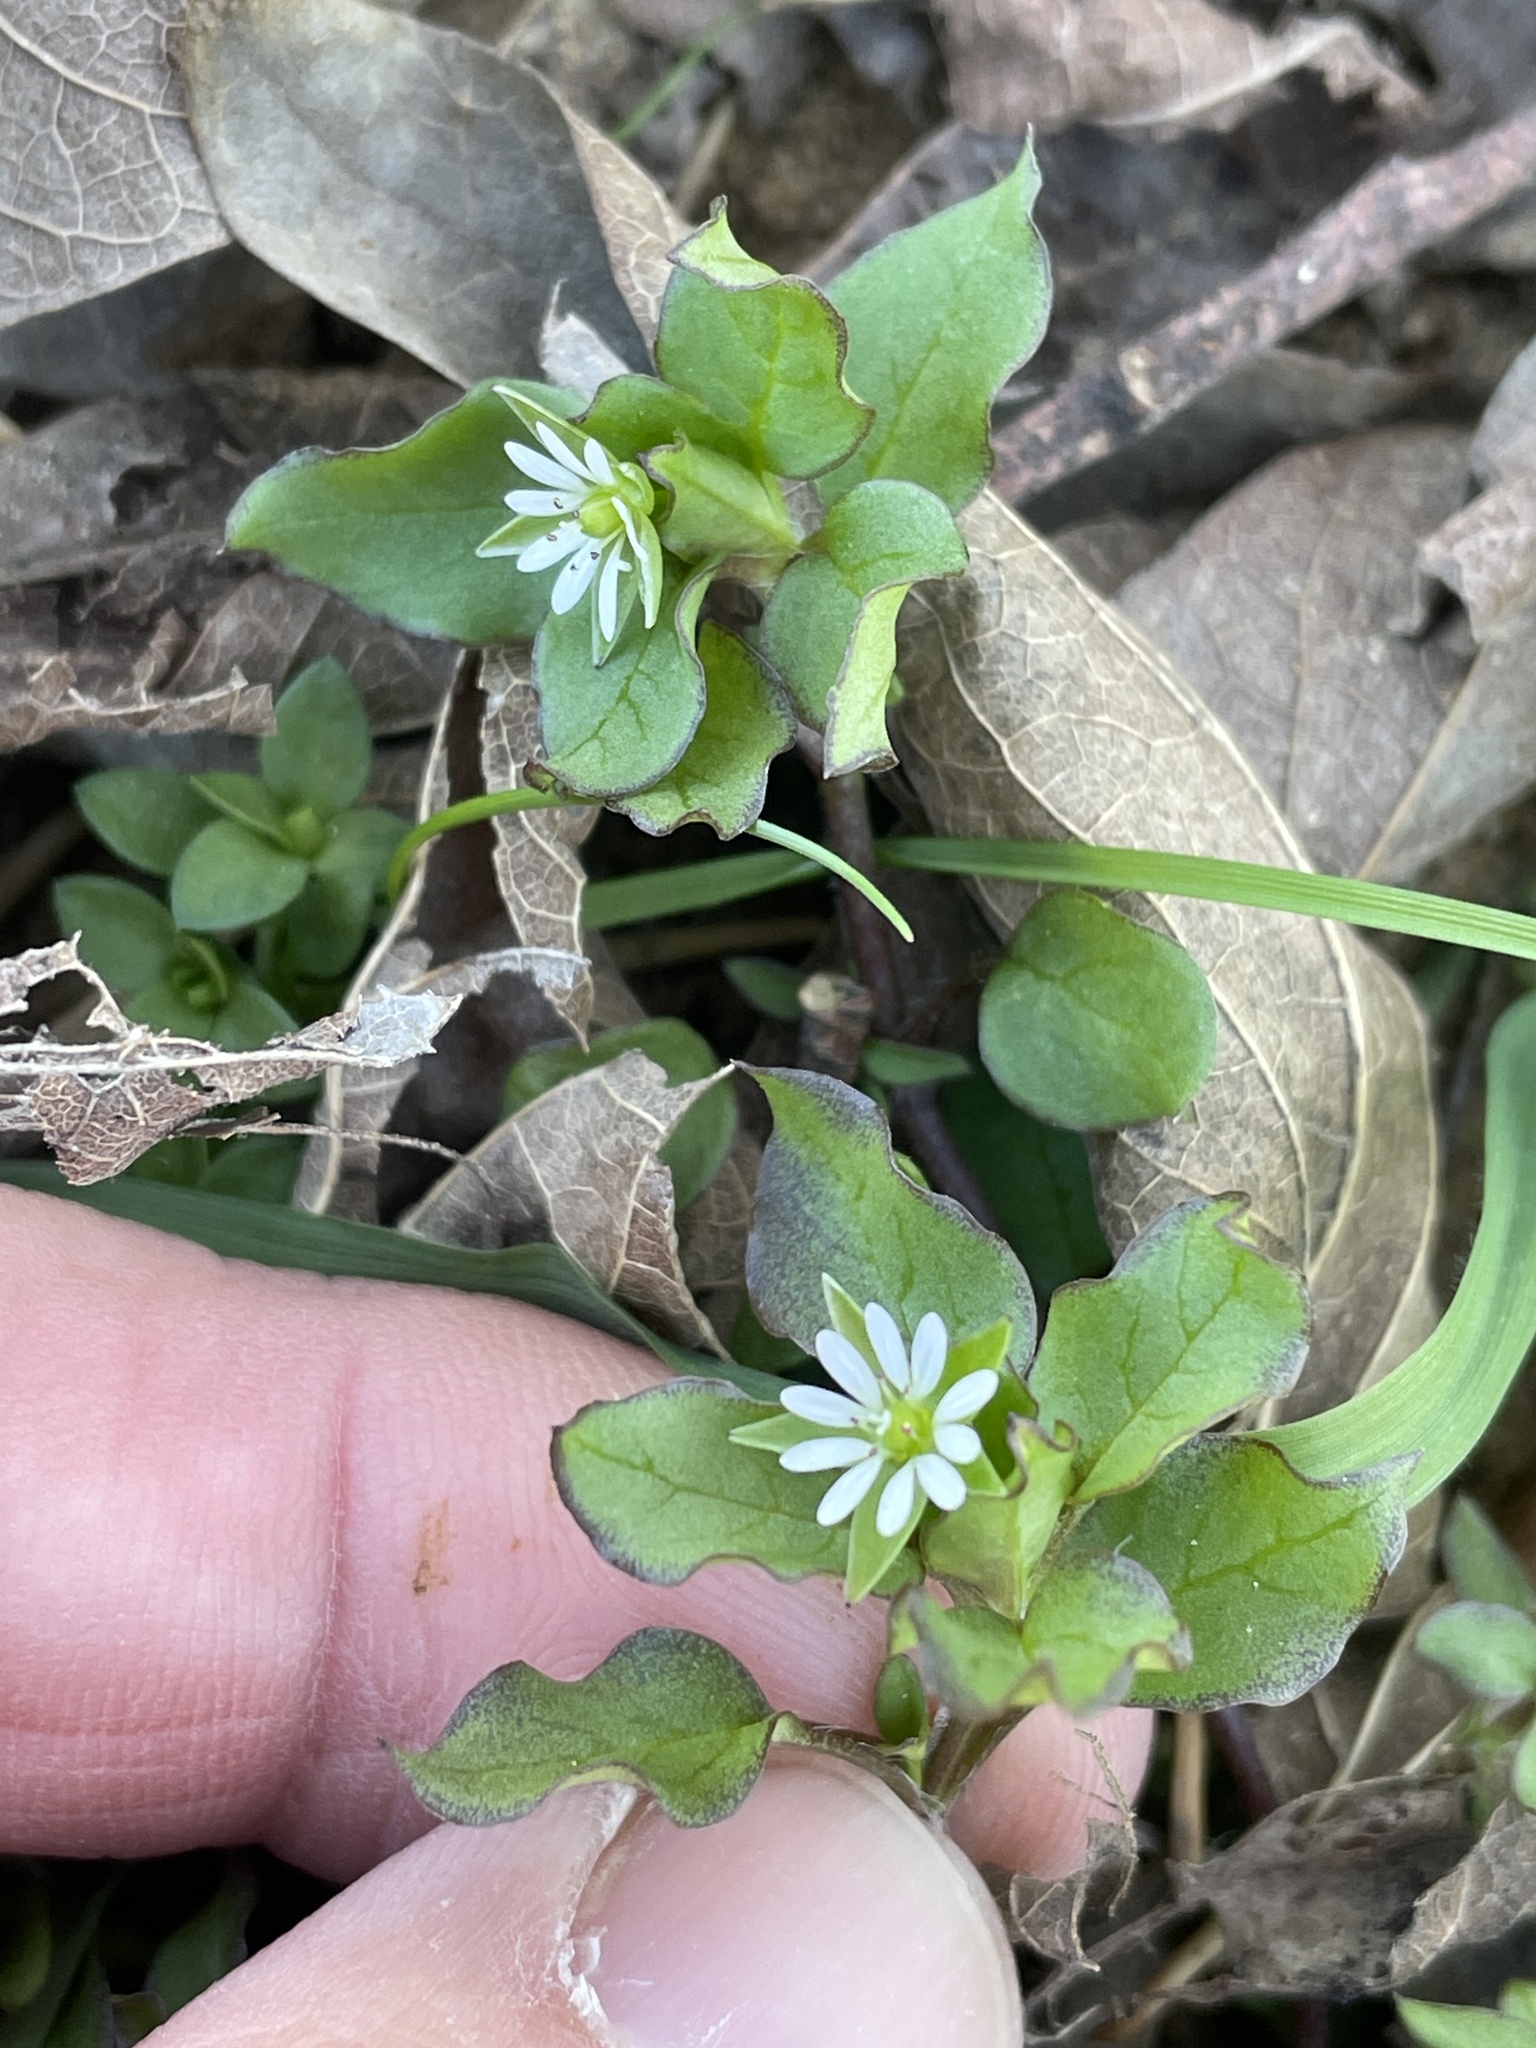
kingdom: Plantae
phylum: Tracheophyta
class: Magnoliopsida
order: Caryophyllales
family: Caryophyllaceae
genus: Stellaria
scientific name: Stellaria media
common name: Common chickweed
